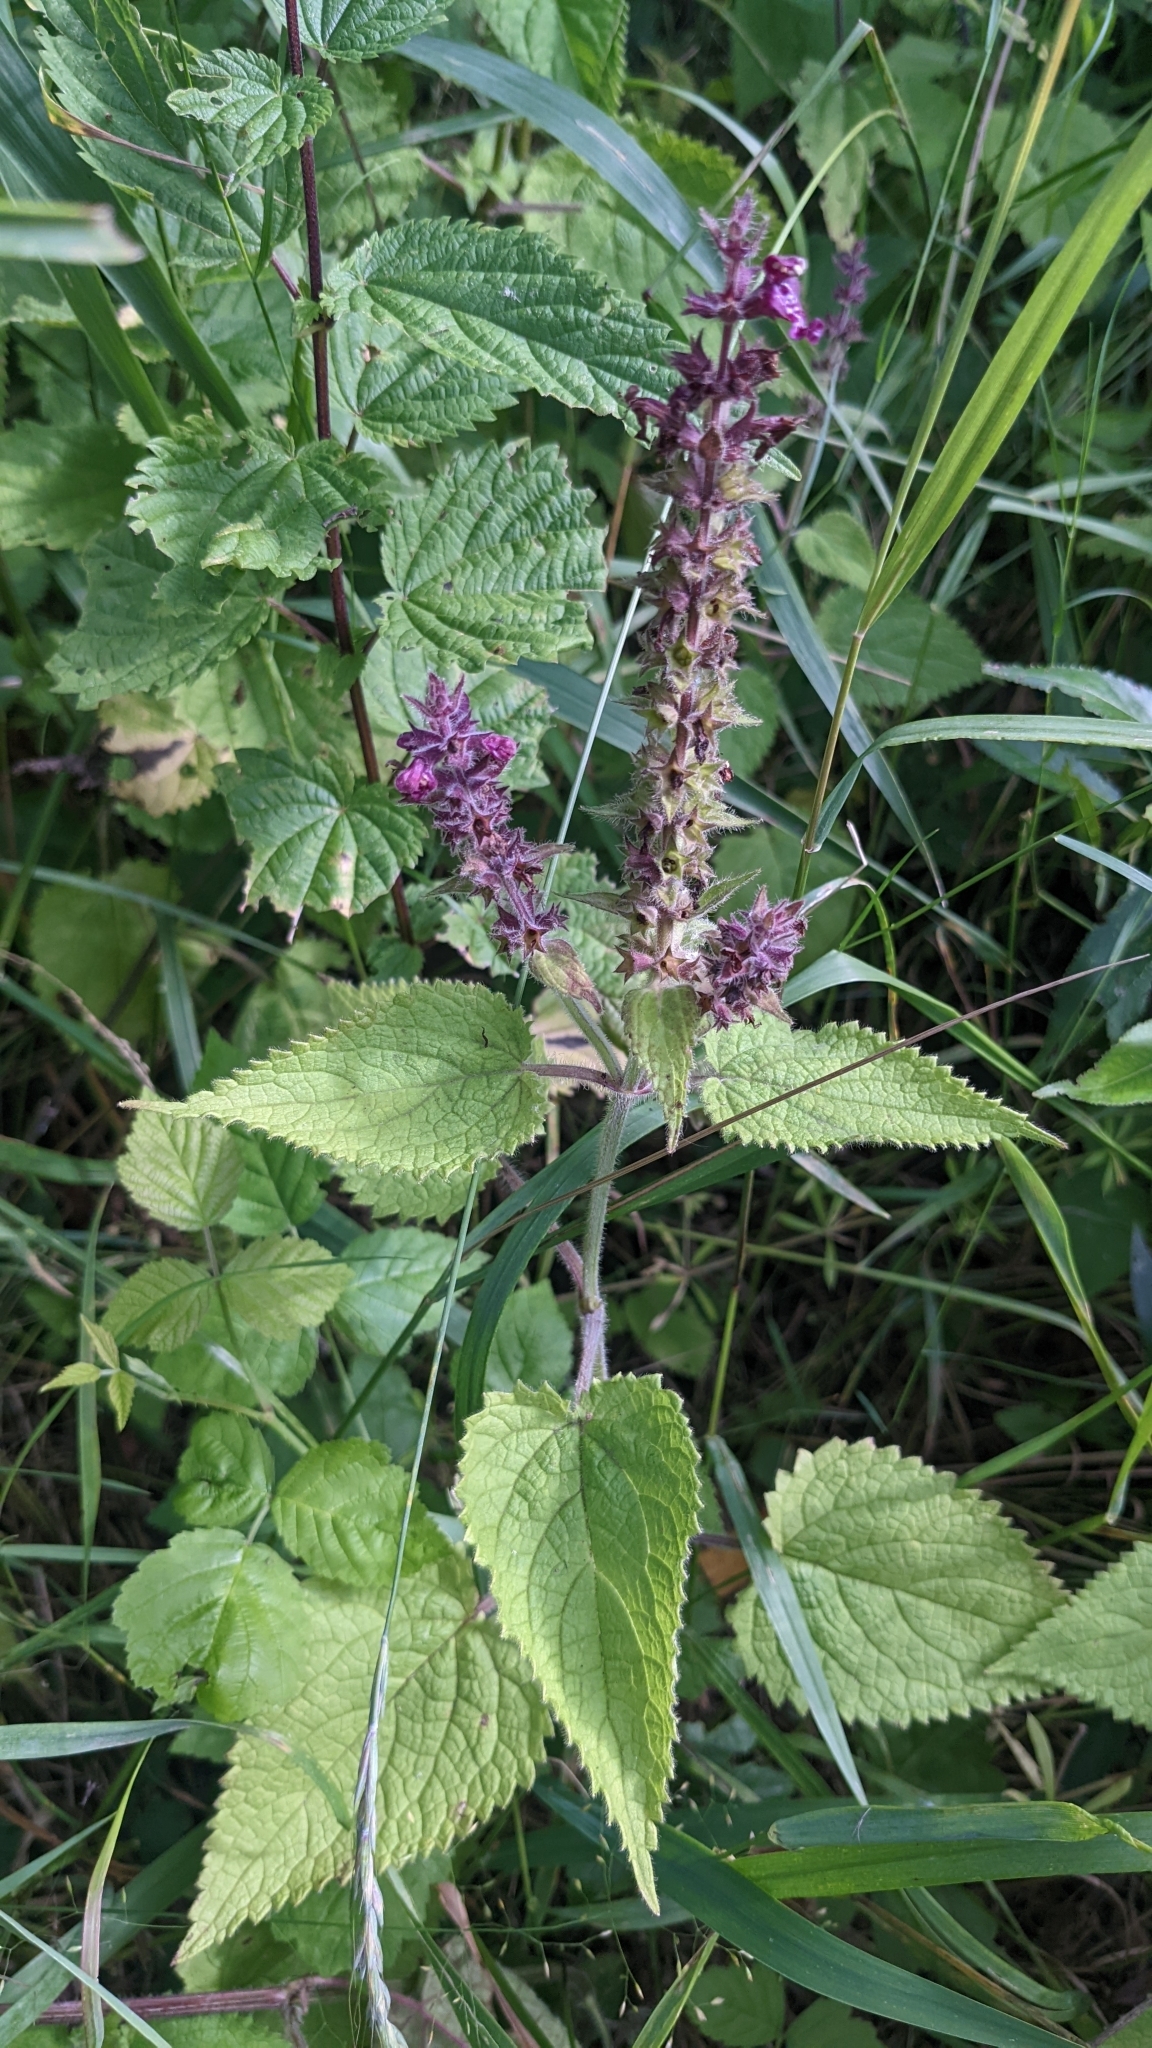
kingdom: Plantae
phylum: Tracheophyta
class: Magnoliopsida
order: Lamiales
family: Lamiaceae
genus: Stachys
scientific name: Stachys sylvatica
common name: Hedge woundwort
